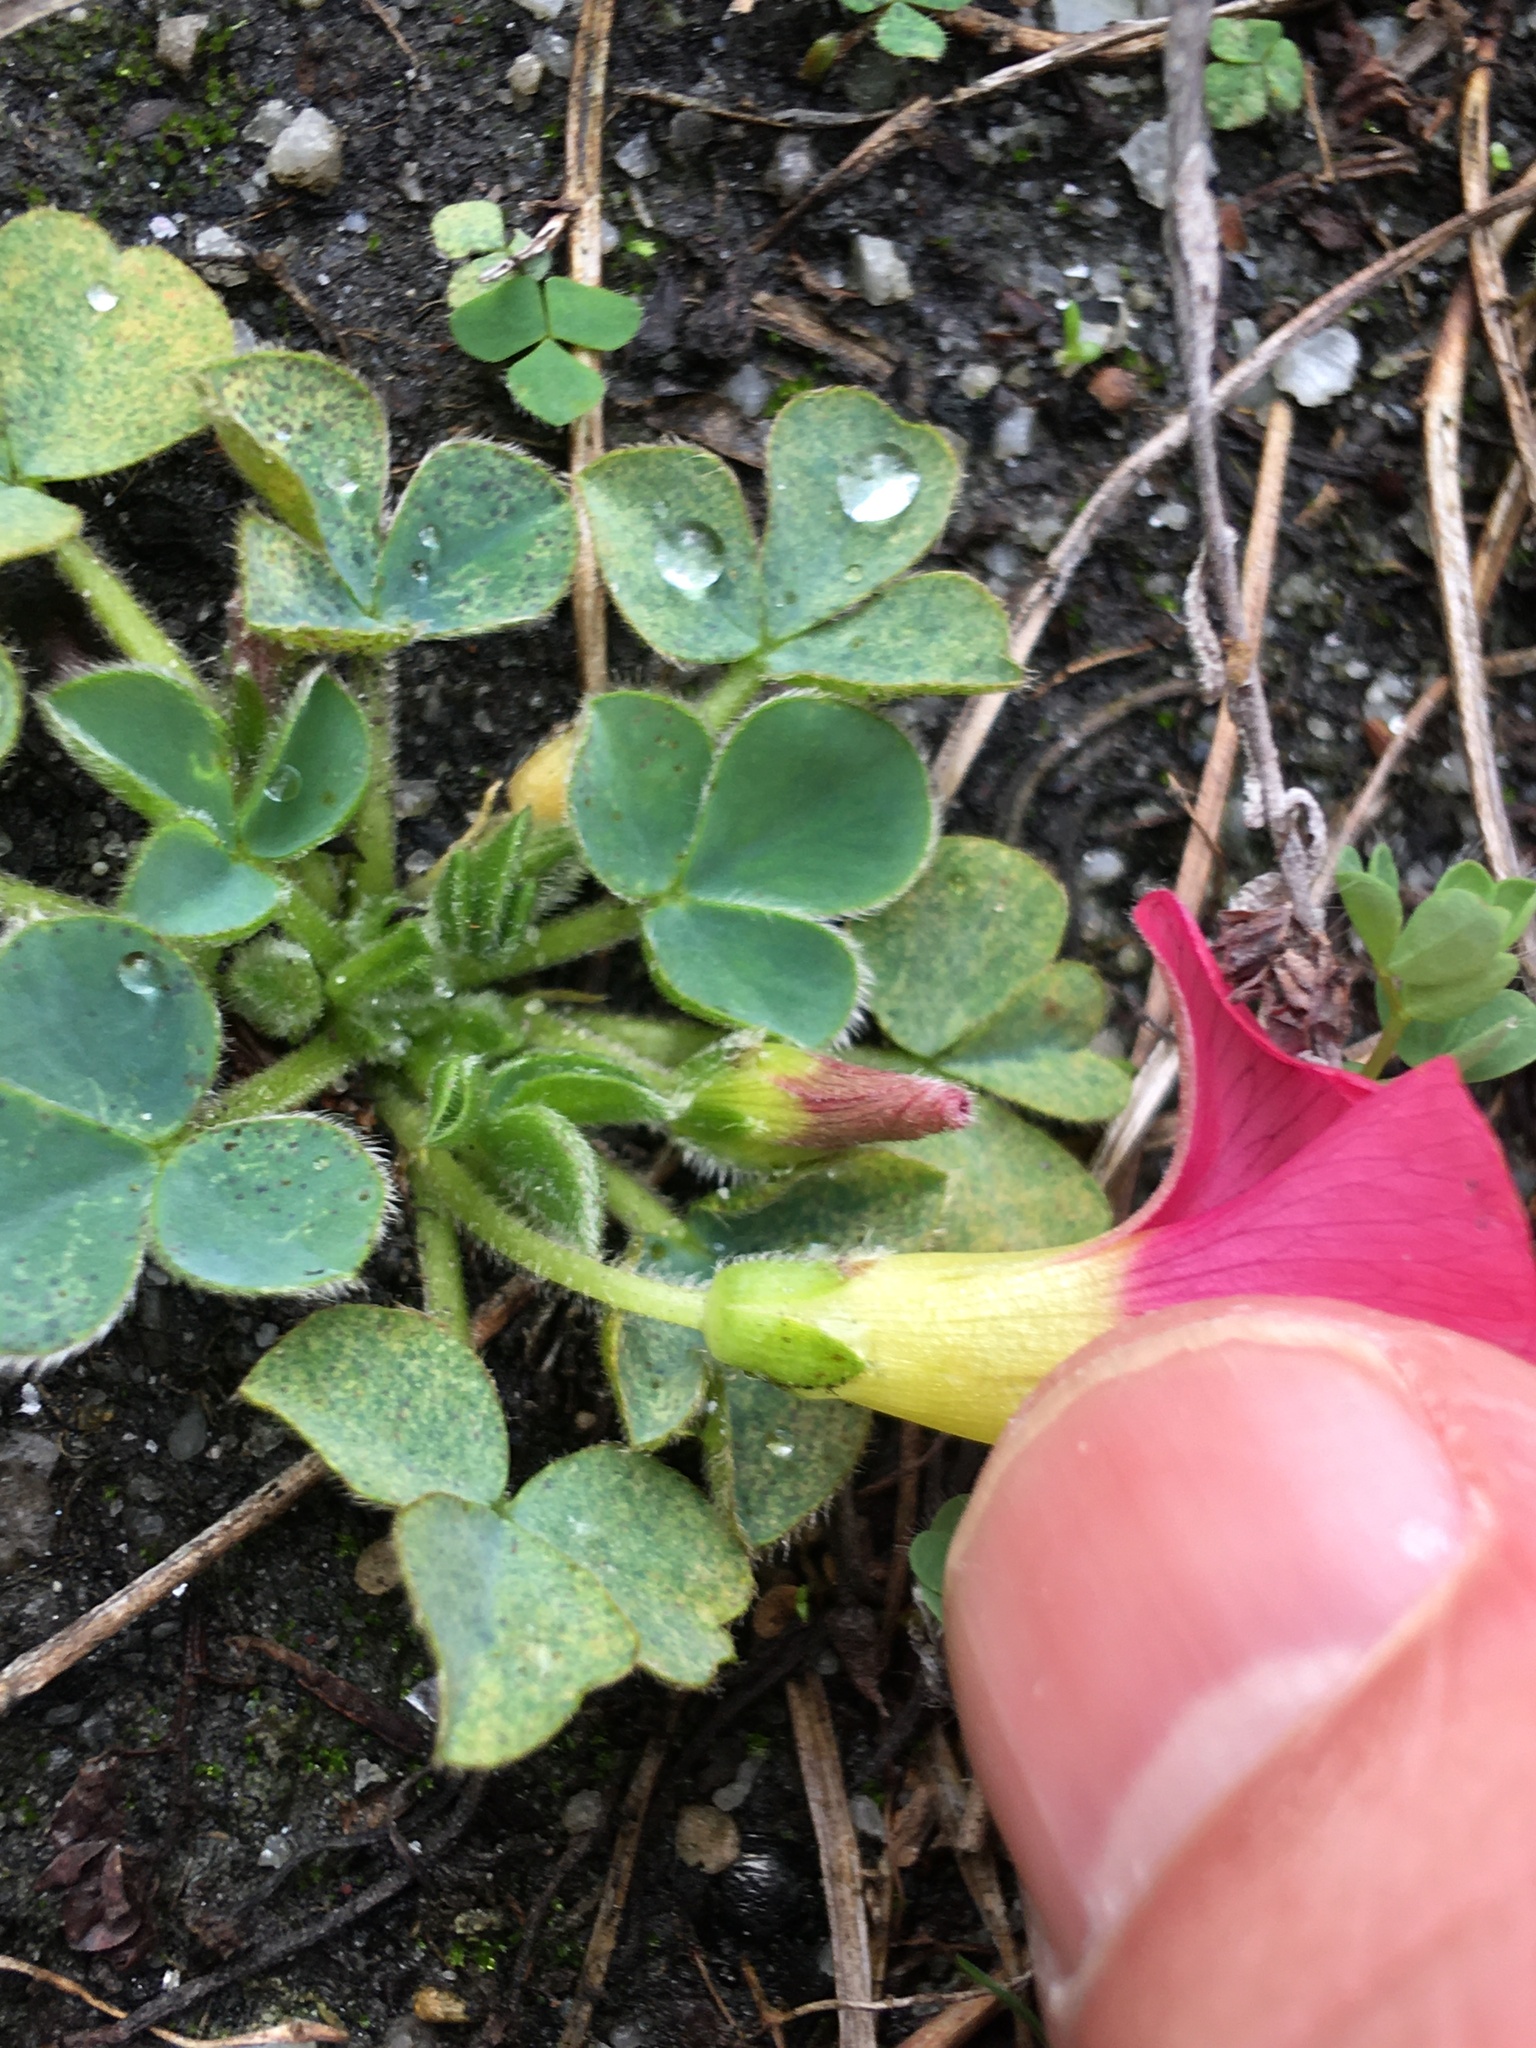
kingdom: Plantae
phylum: Tracheophyta
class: Magnoliopsida
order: Oxalidales
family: Oxalidaceae
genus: Oxalis
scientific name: Oxalis purpurea
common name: Purple woodsorrel
